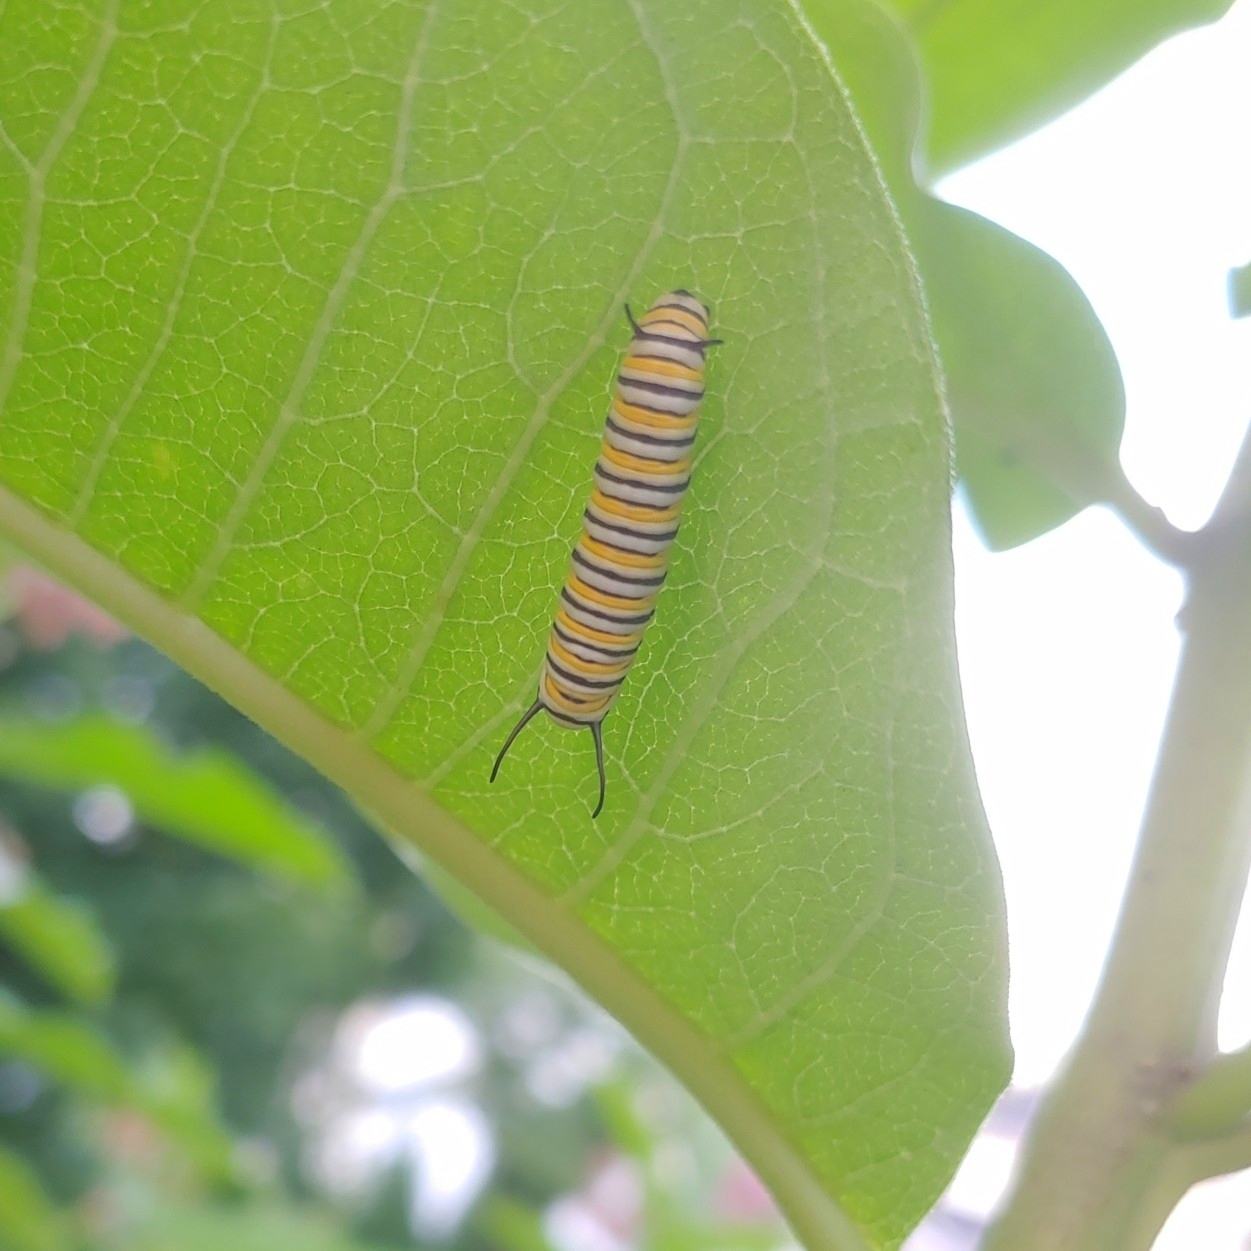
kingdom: Animalia
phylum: Arthropoda
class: Insecta
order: Lepidoptera
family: Nymphalidae
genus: Danaus
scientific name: Danaus plexippus
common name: Monarch
